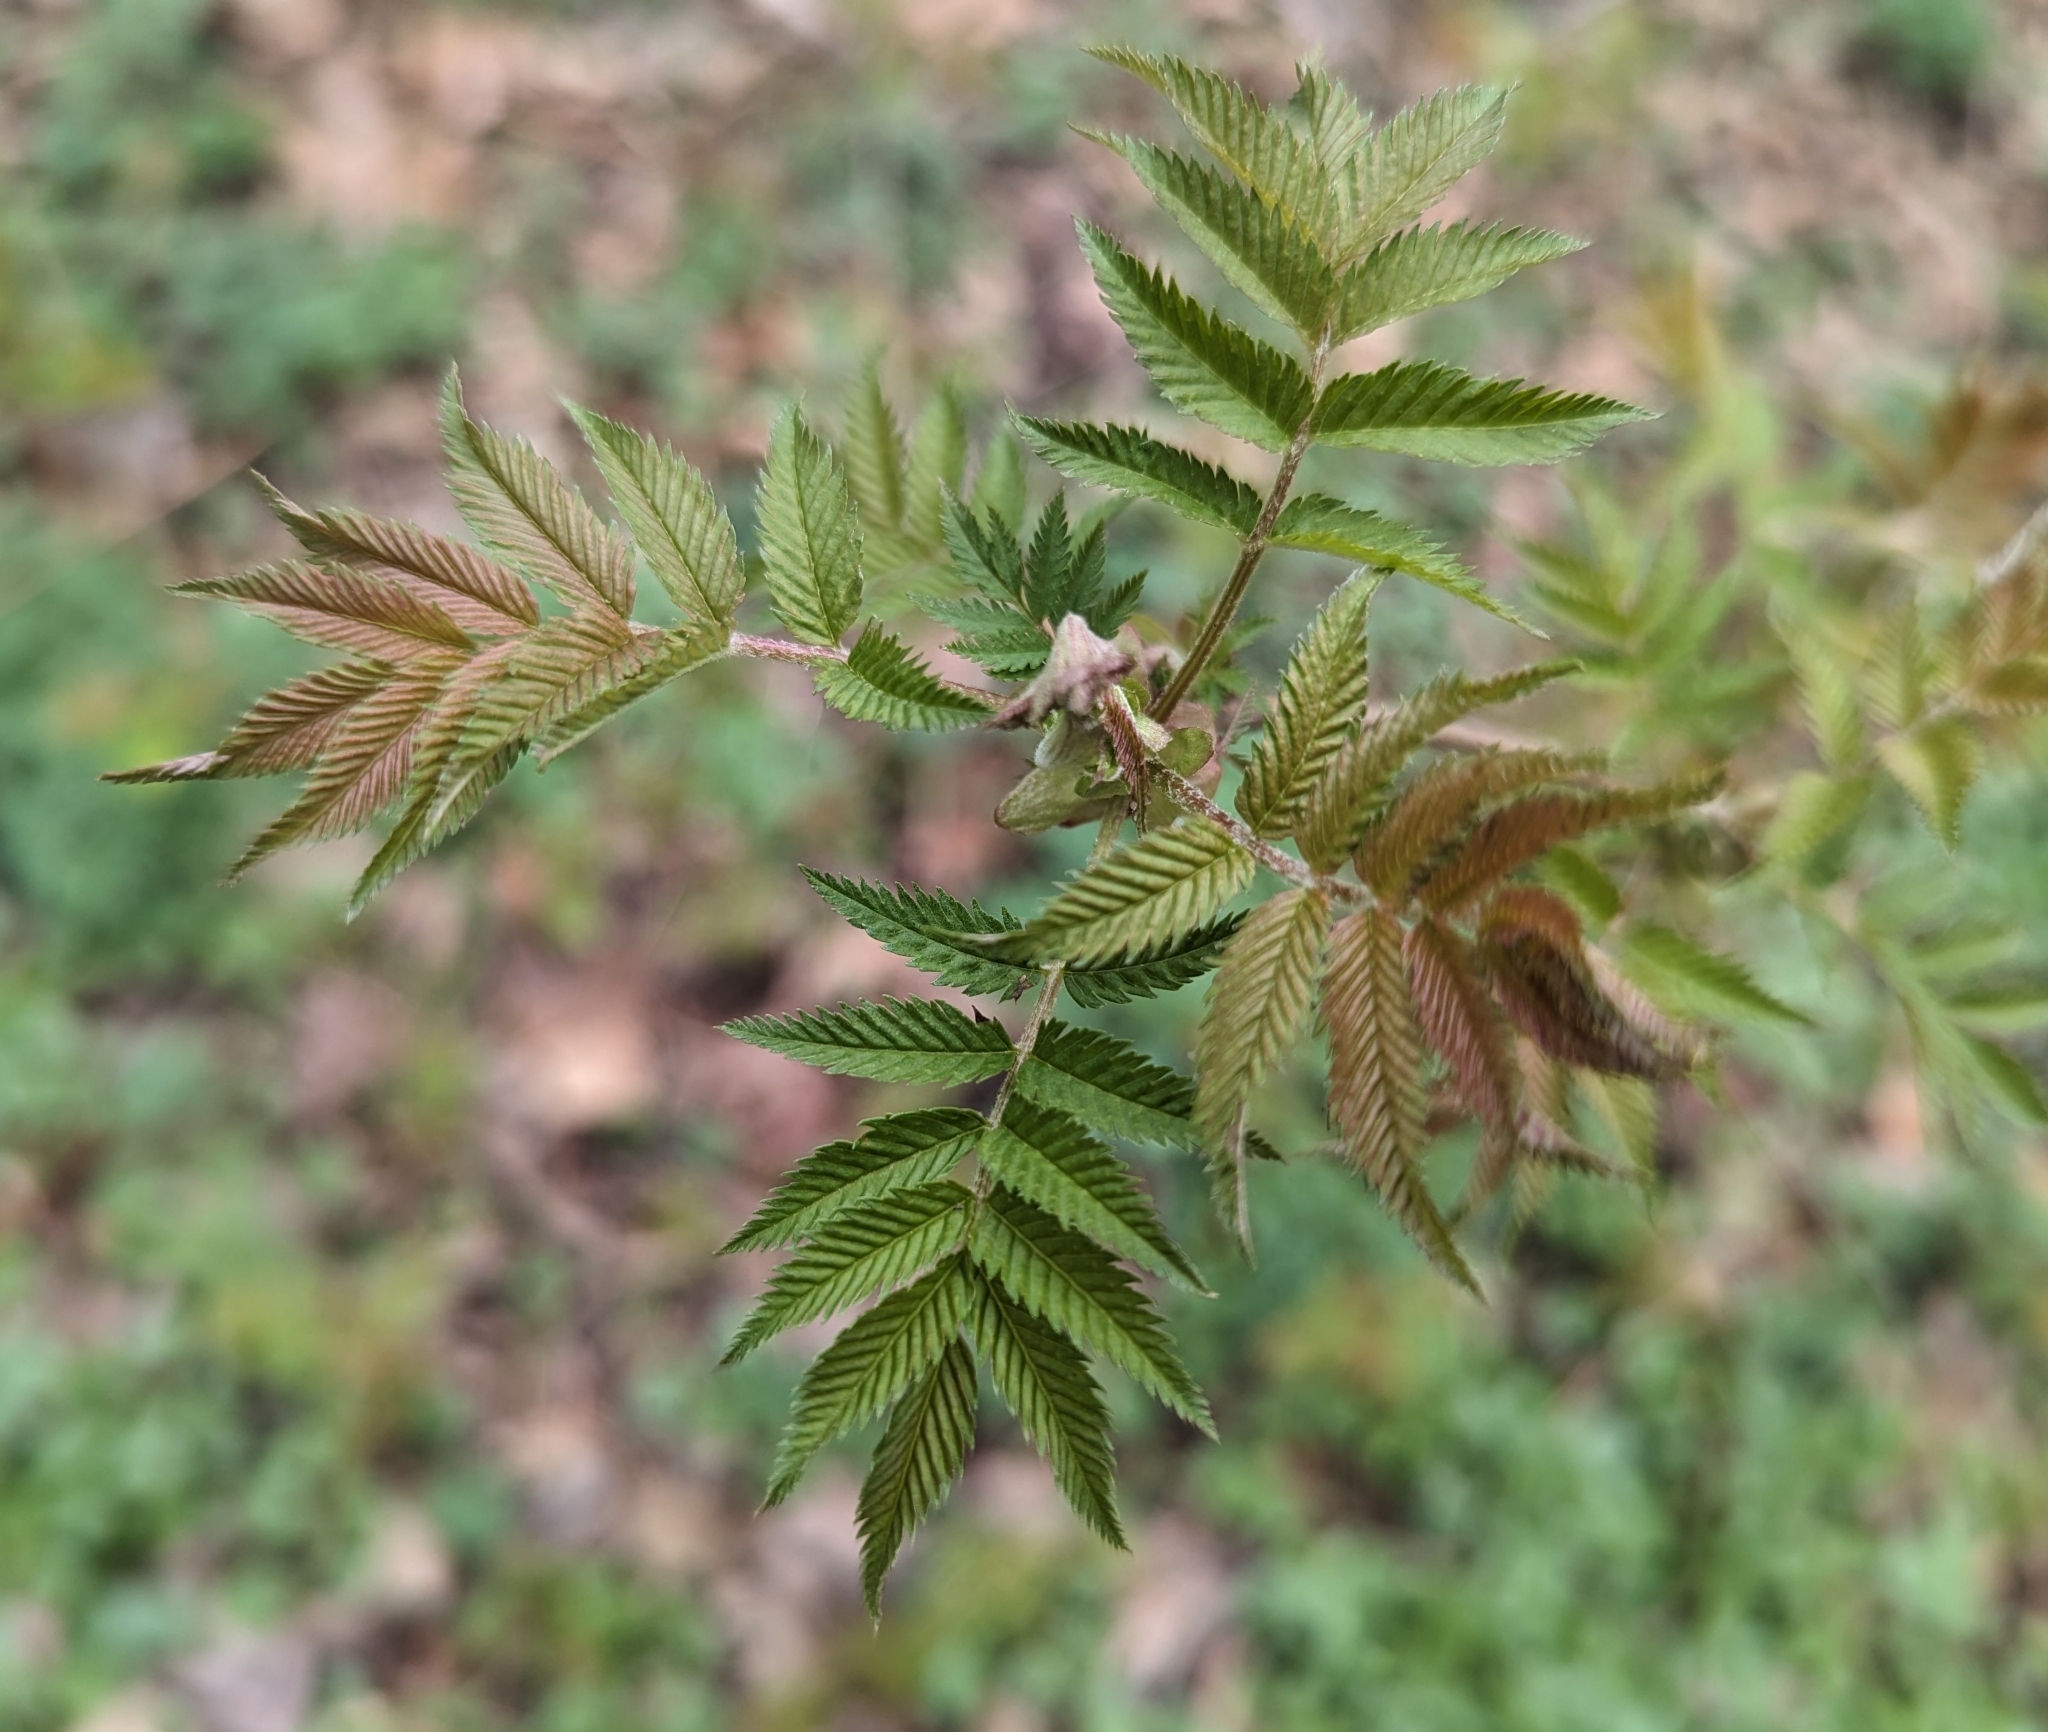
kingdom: Plantae
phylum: Tracheophyta
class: Magnoliopsida
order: Rosales
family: Rosaceae
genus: Sorbaria
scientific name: Sorbaria sorbifolia
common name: False spiraea
